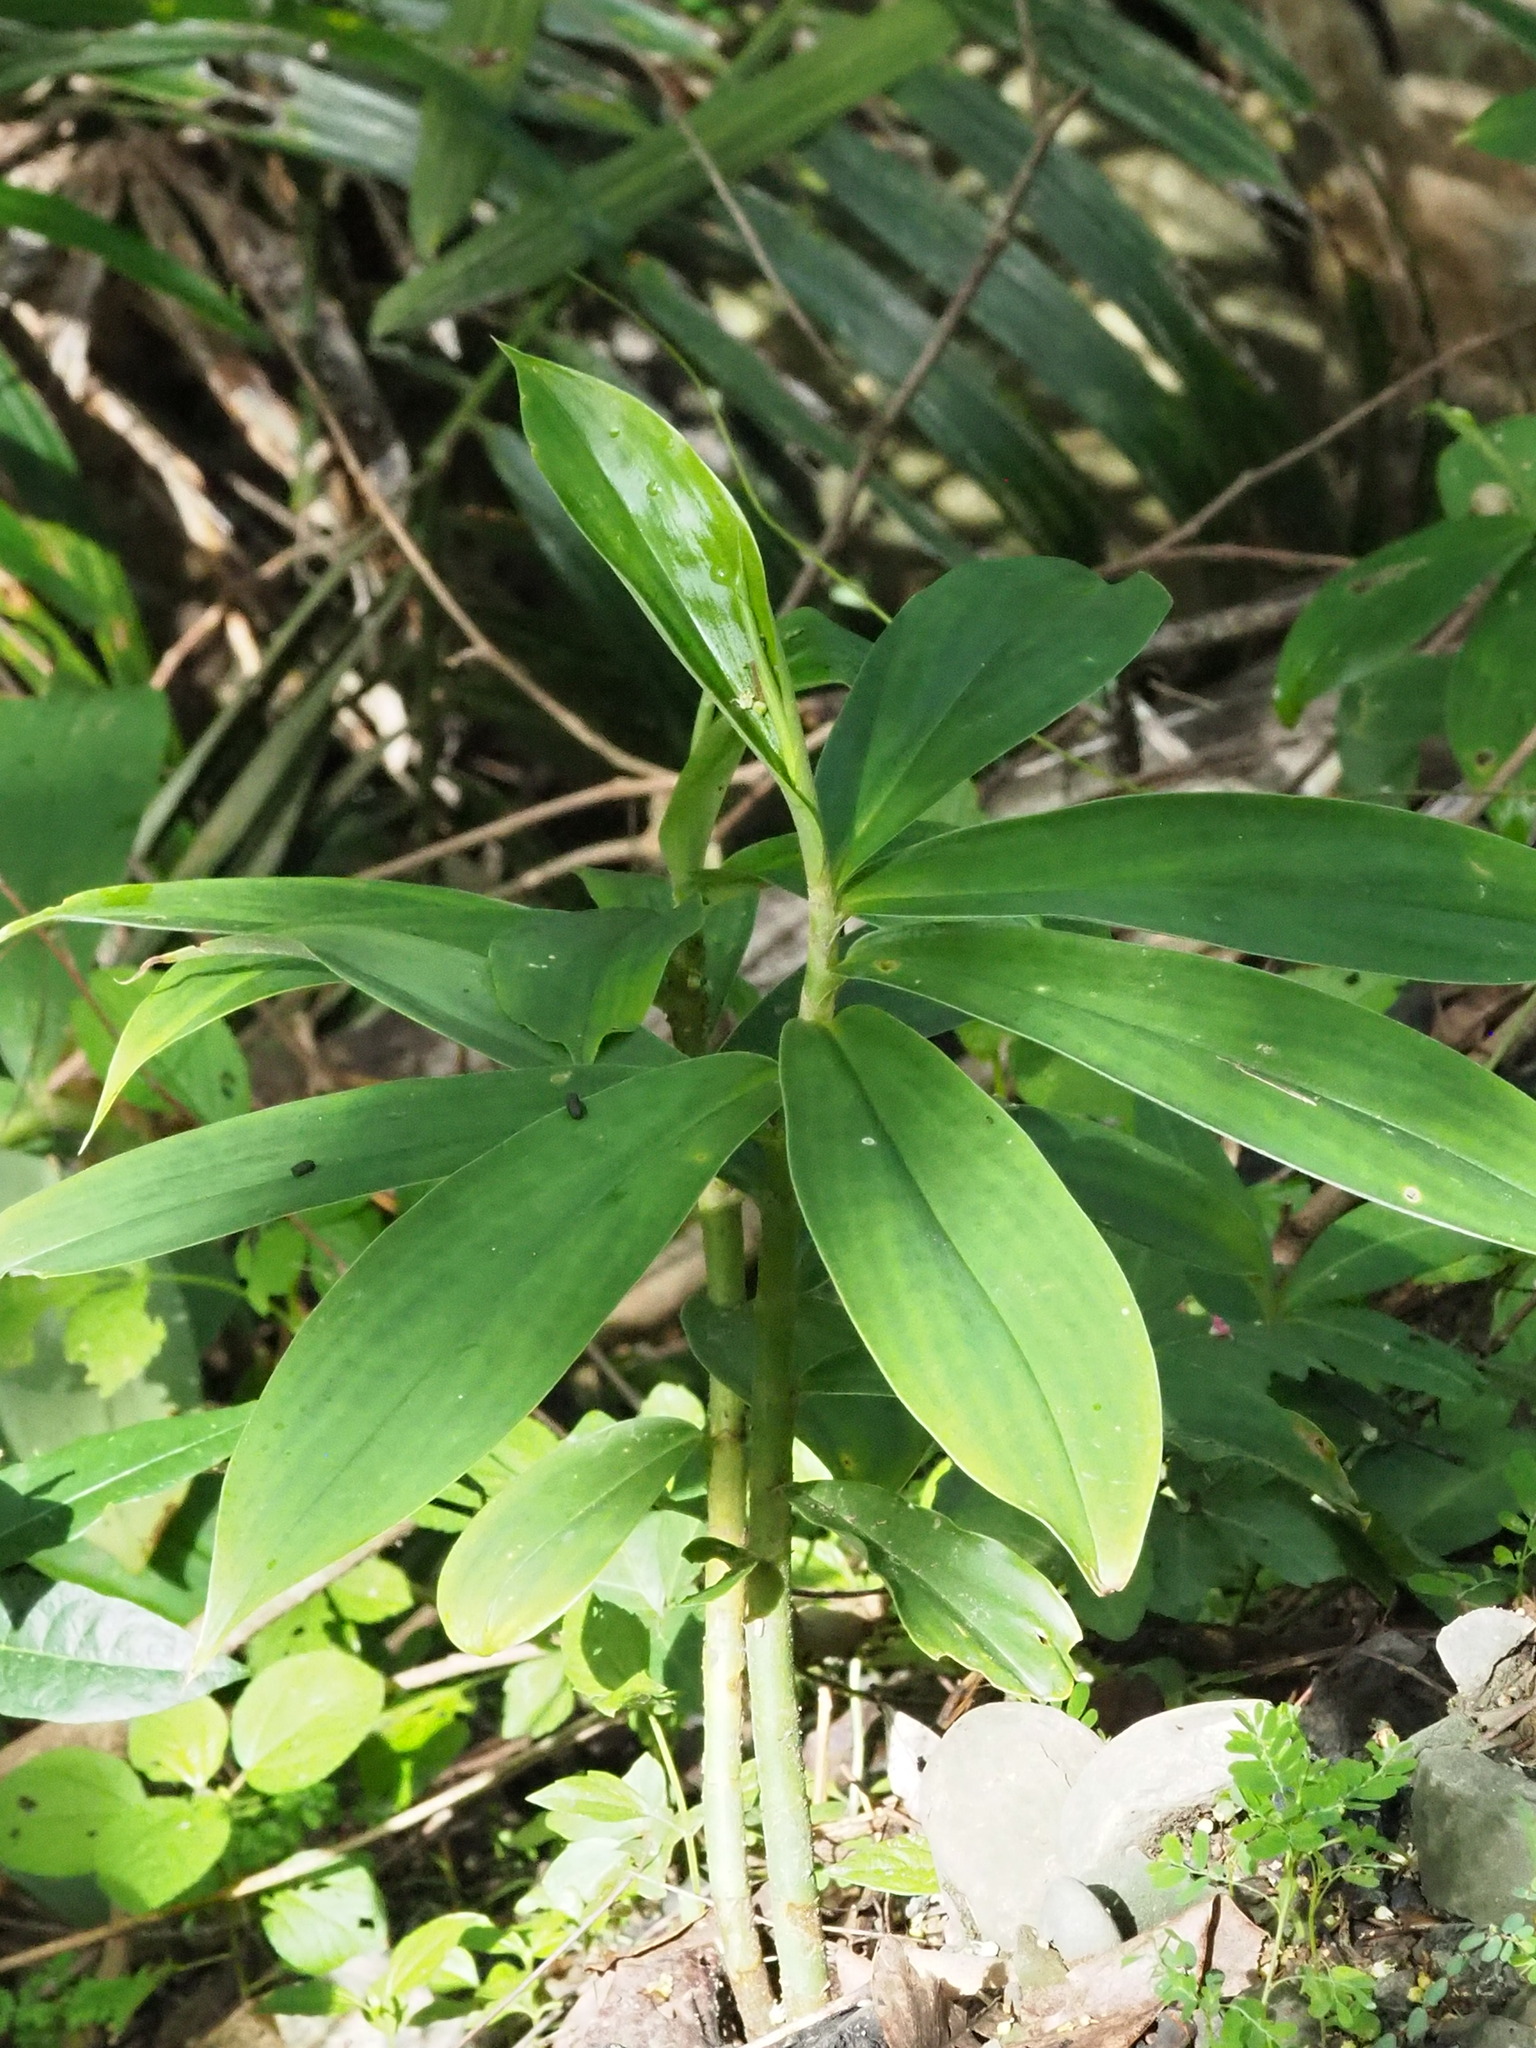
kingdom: Plantae
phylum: Tracheophyta
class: Liliopsida
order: Zingiberales
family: Costaceae
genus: Hellenia
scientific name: Hellenia speciosa
